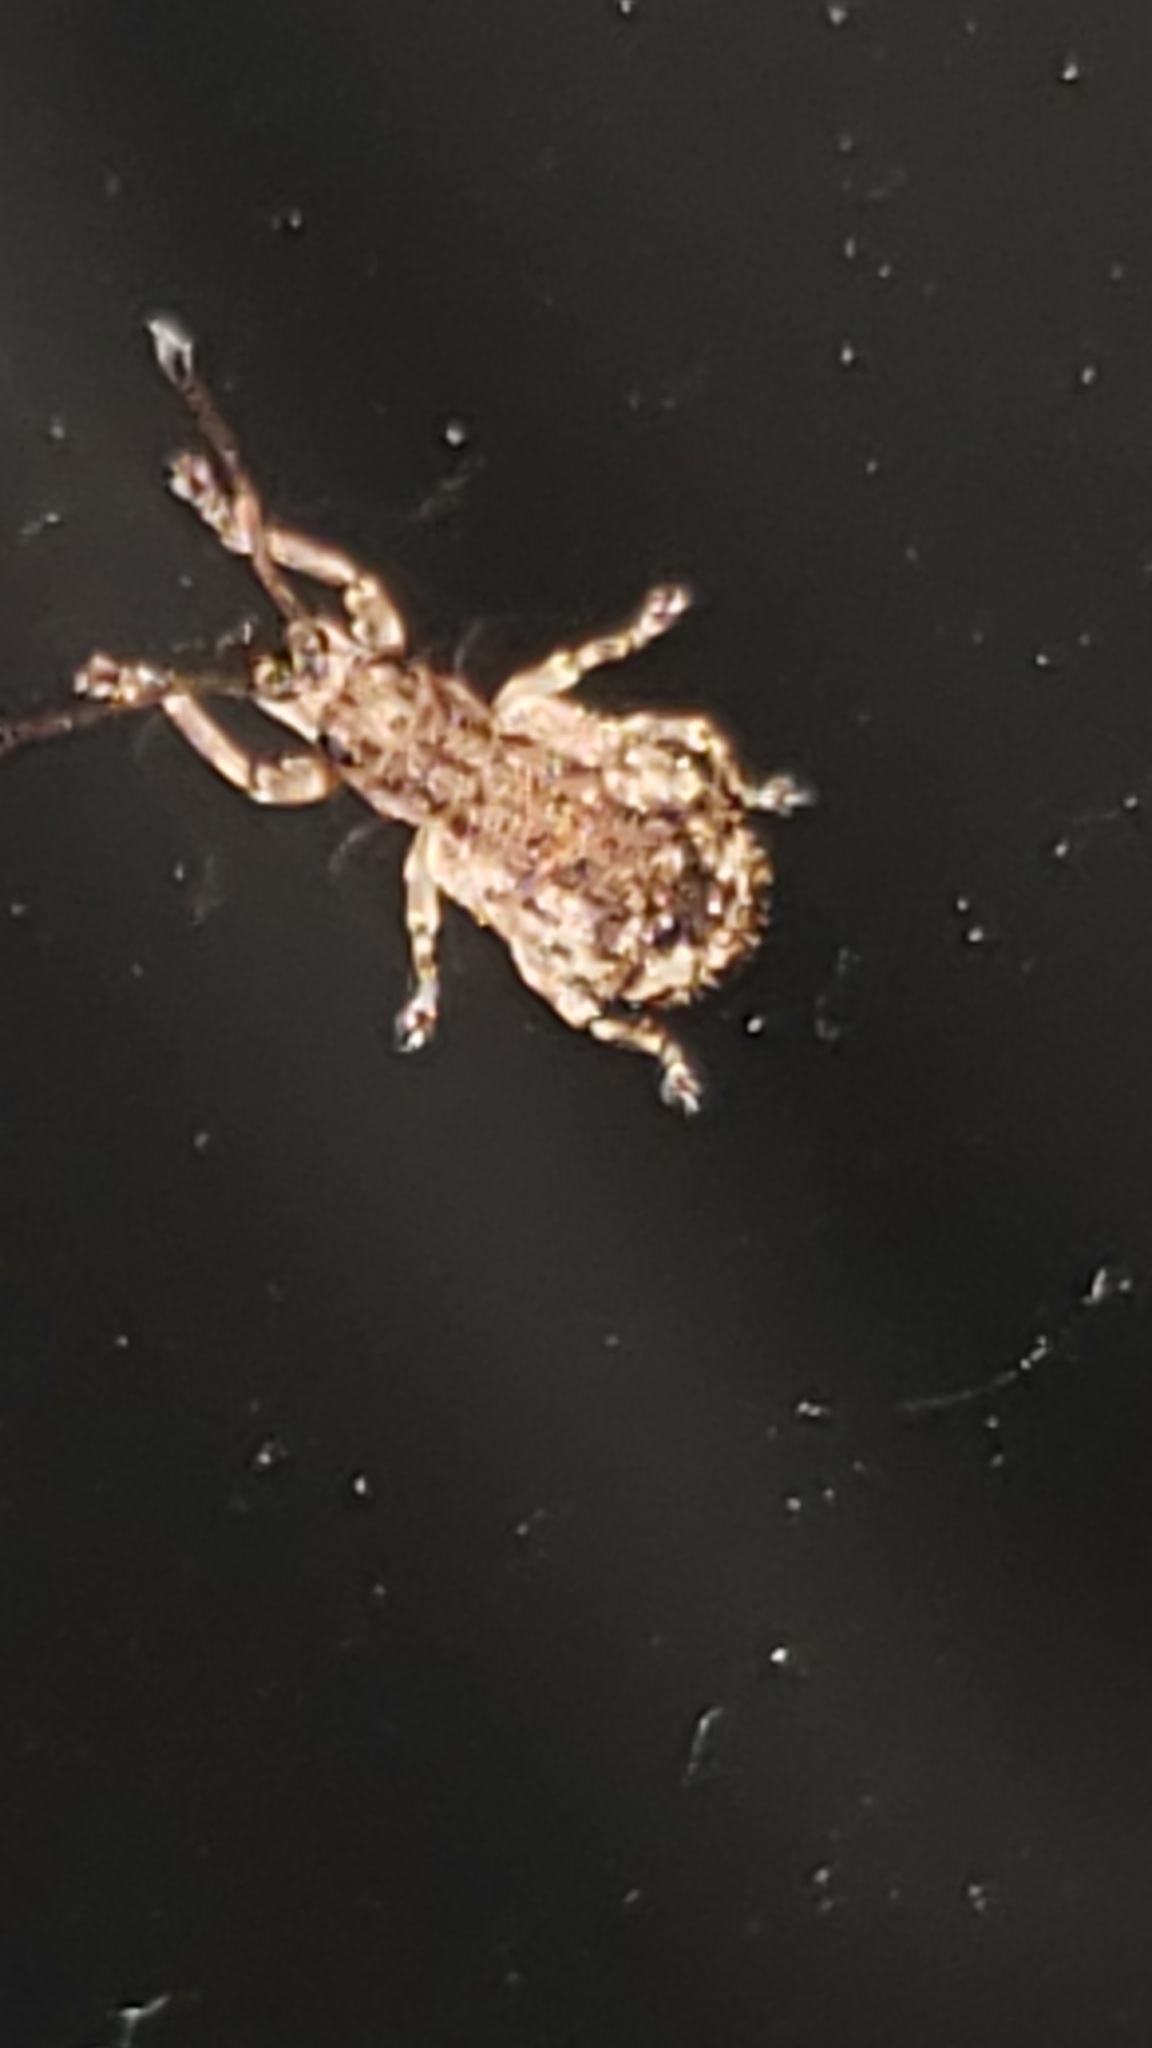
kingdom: Animalia
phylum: Arthropoda
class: Insecta
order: Coleoptera
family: Curculionidae
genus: Pseudoedophrys
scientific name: Pseudoedophrys hilleri
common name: Weevil
